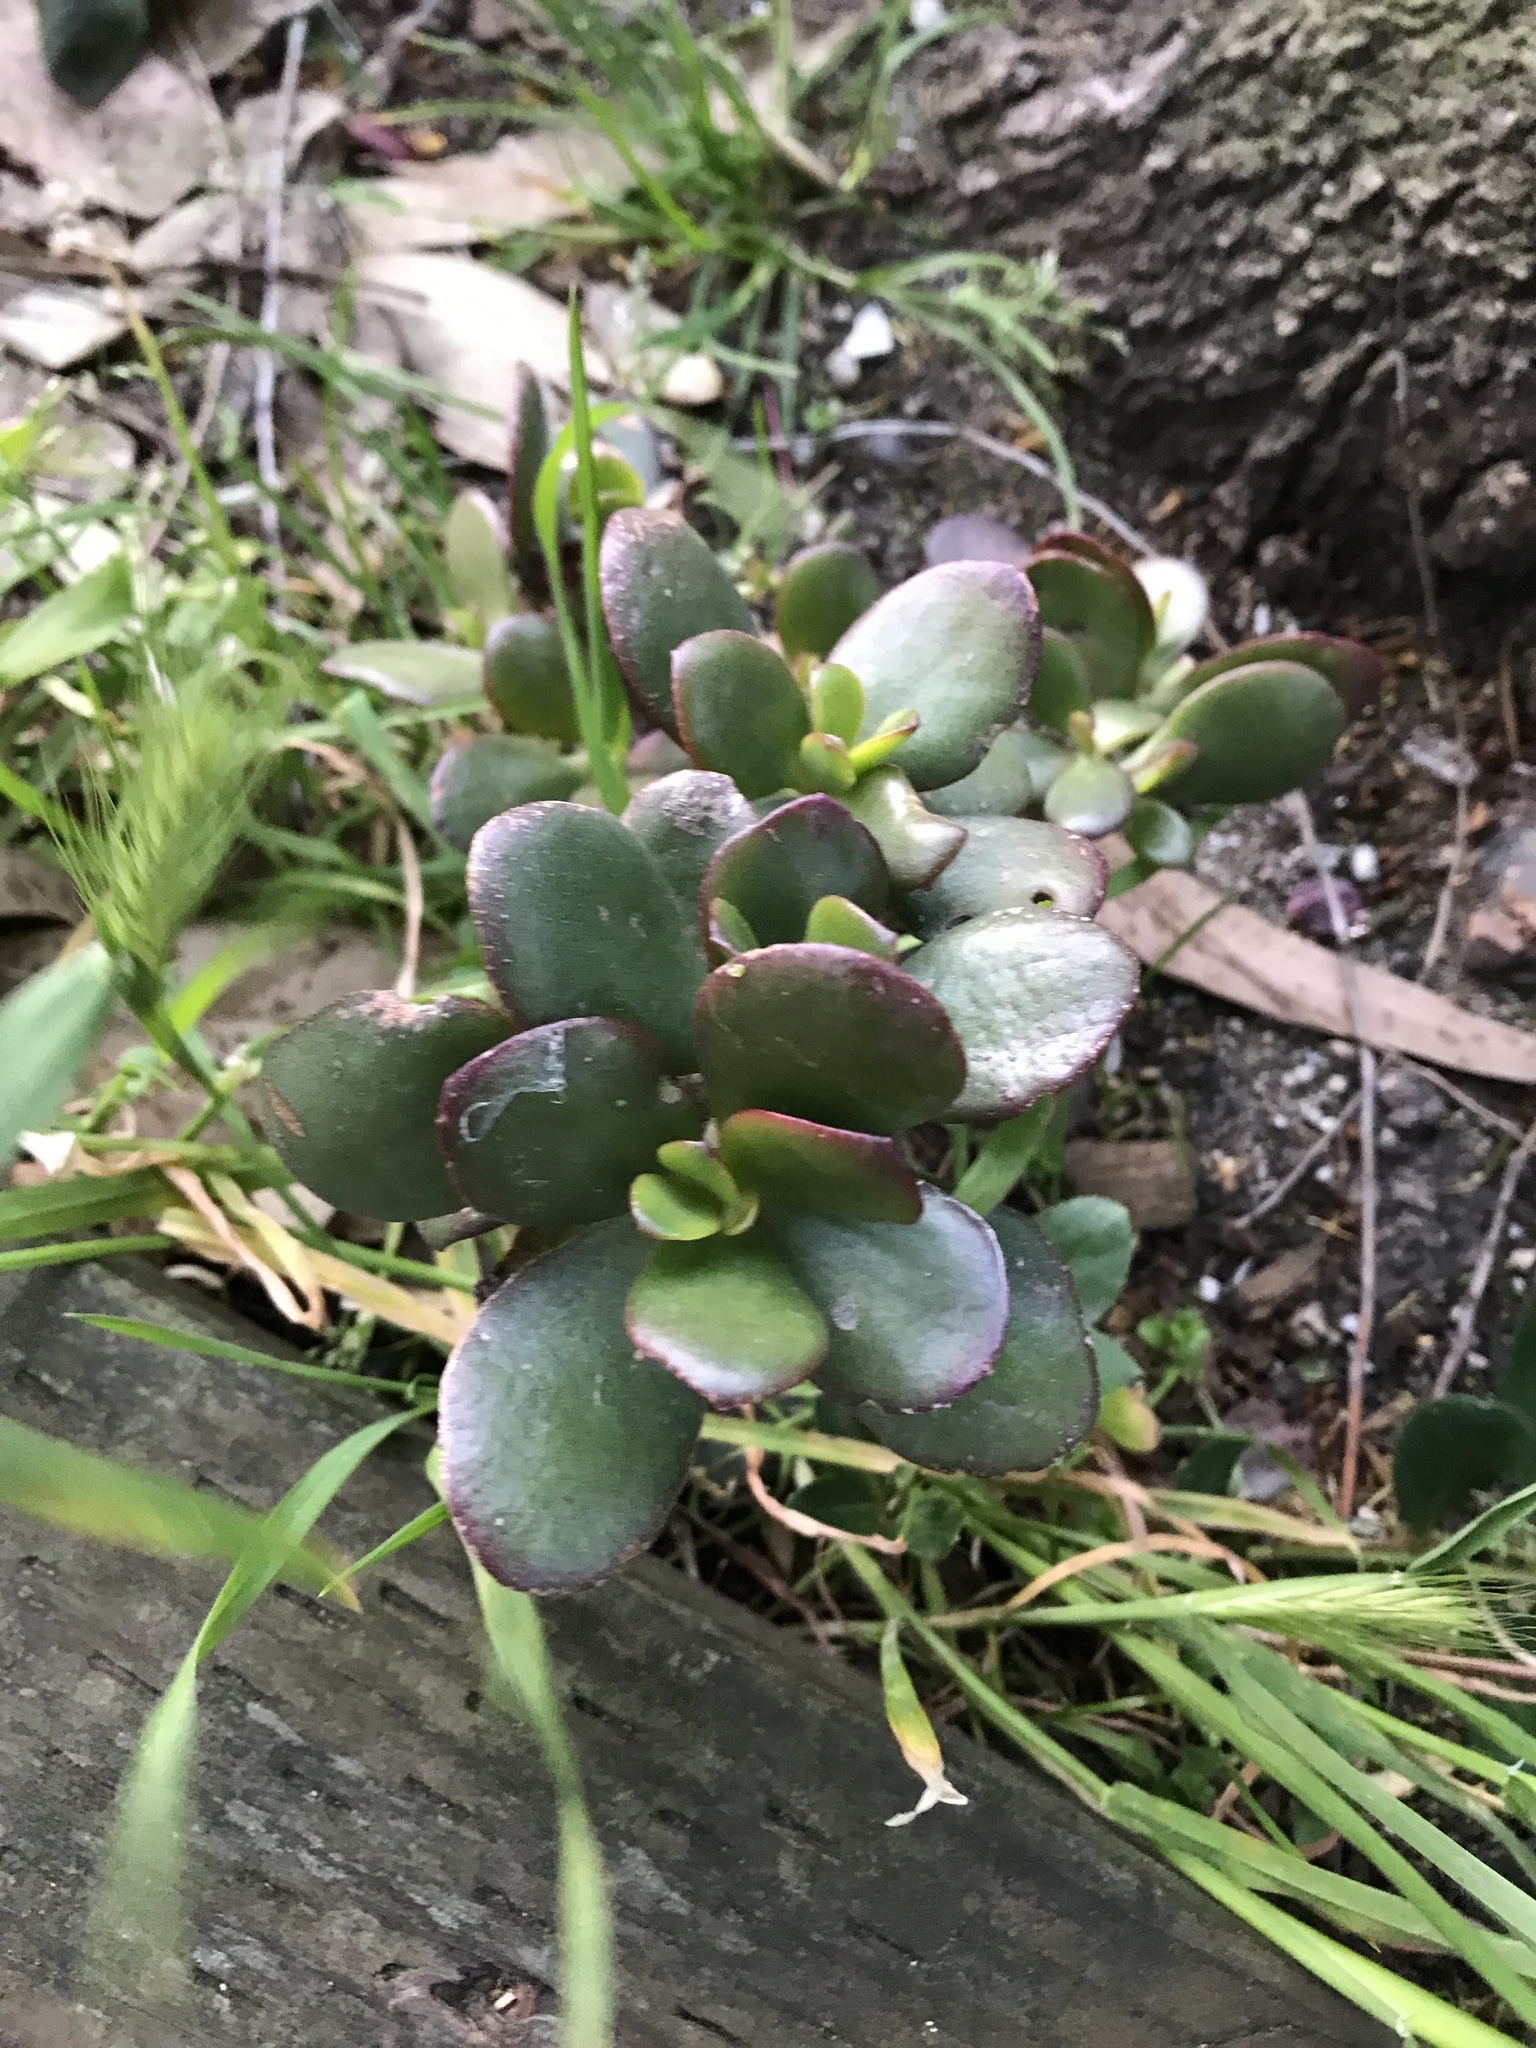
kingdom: Plantae
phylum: Tracheophyta
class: Magnoliopsida
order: Saxifragales
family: Crassulaceae
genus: Crassula
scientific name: Crassula ovata
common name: Jade plant
